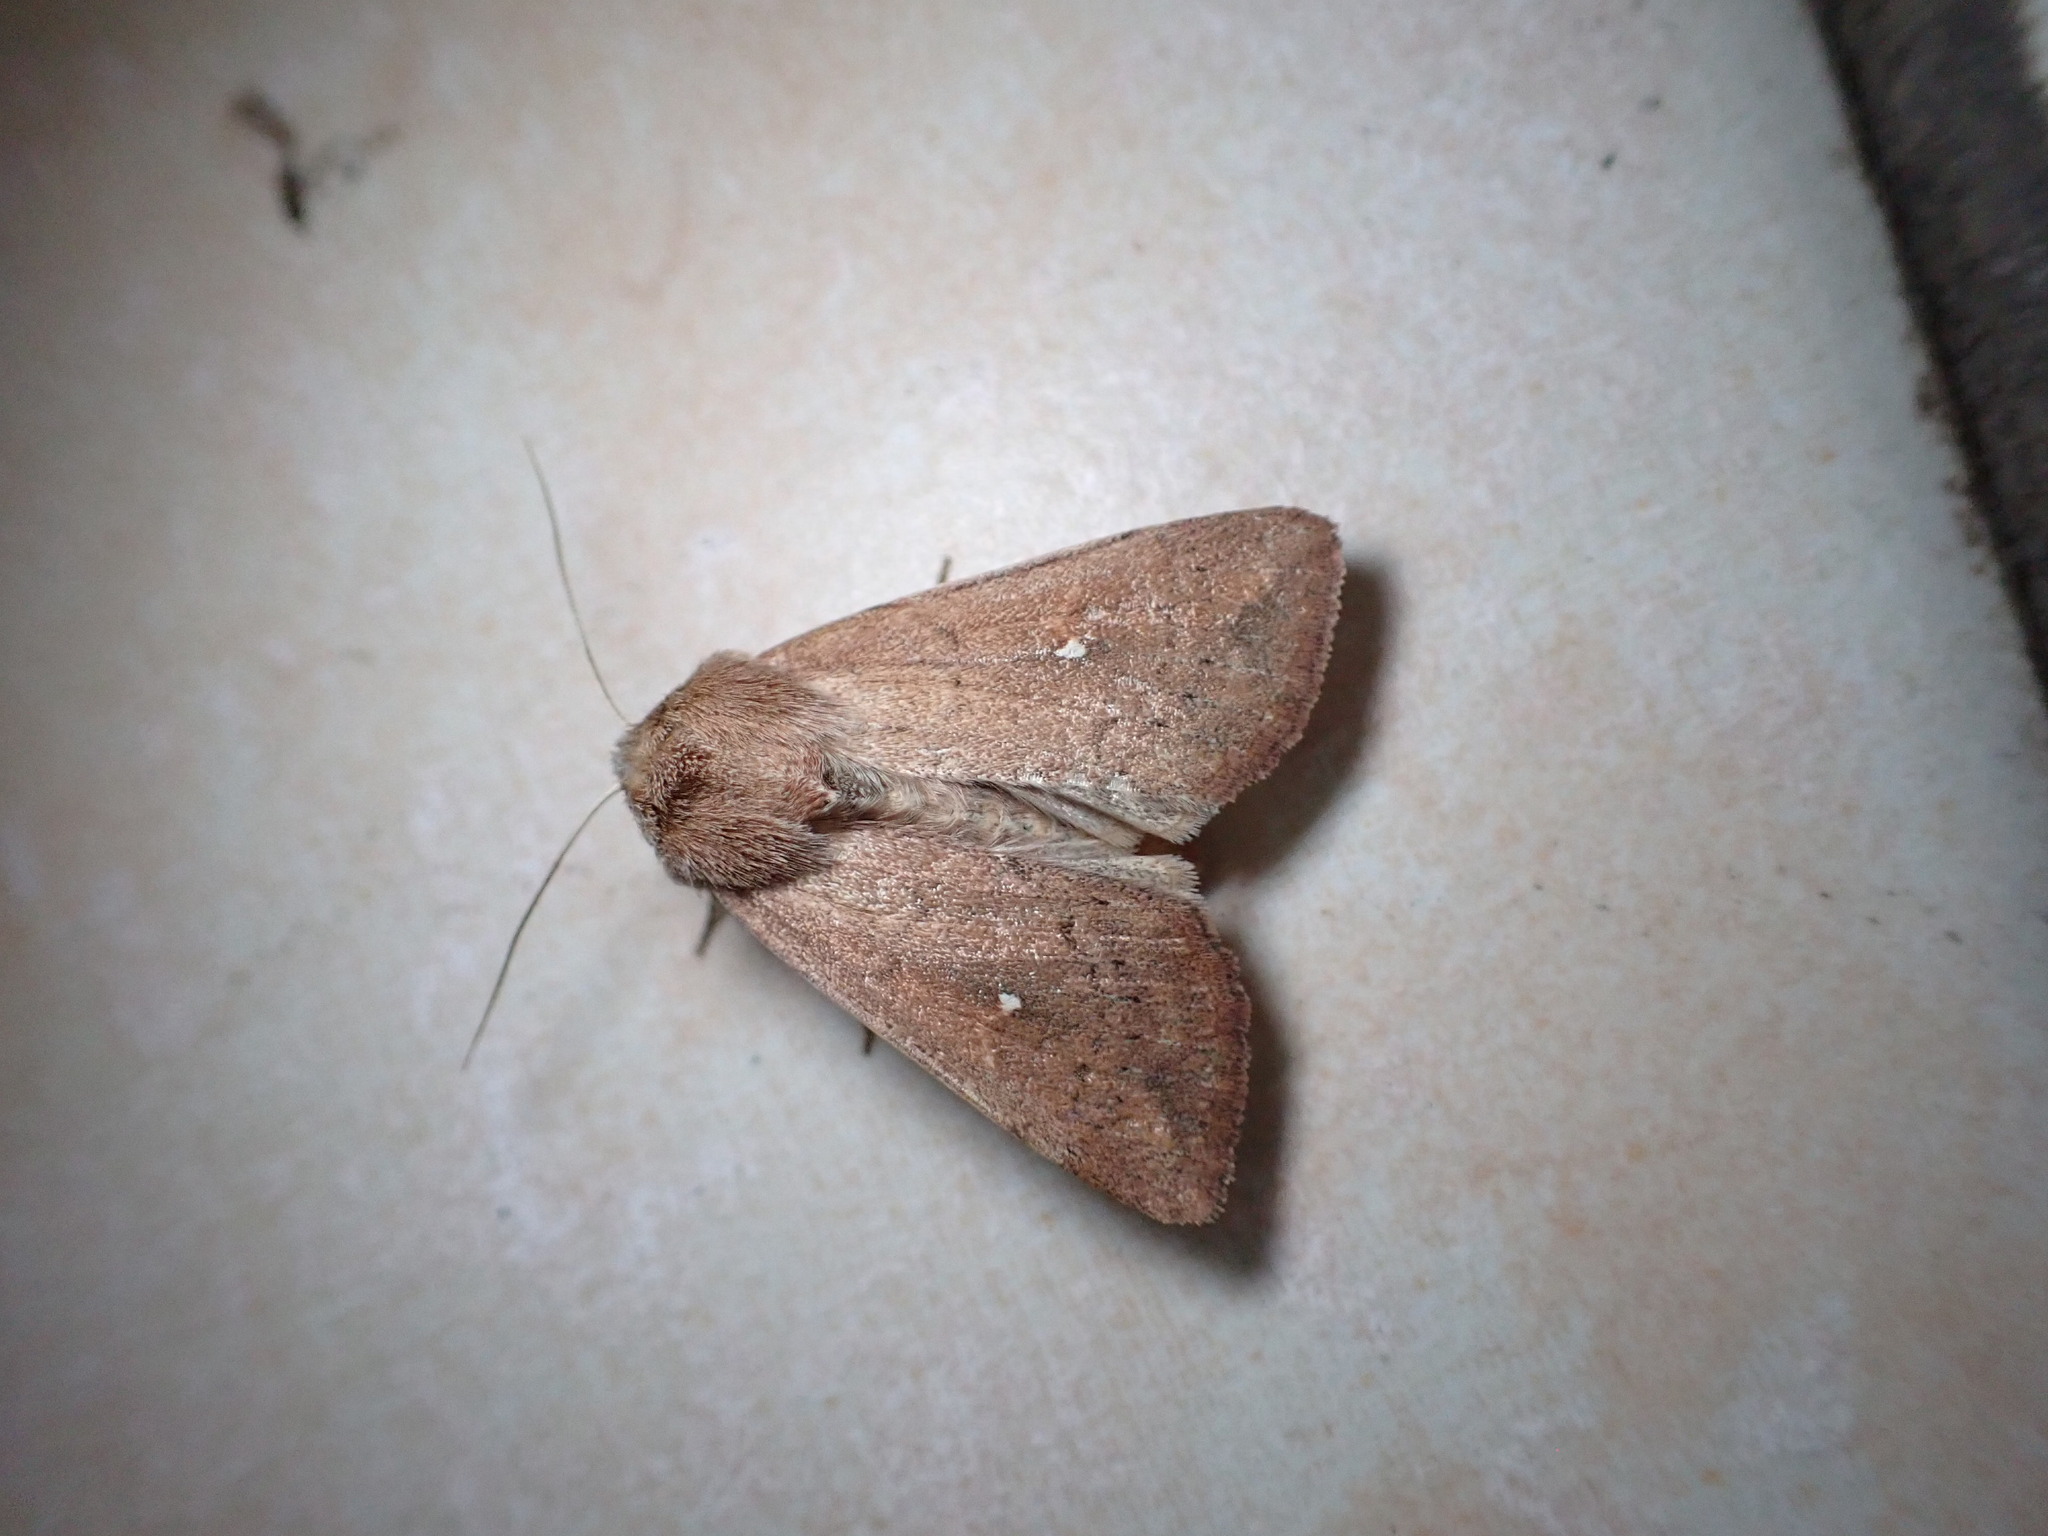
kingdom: Animalia
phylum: Arthropoda
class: Insecta
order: Lepidoptera
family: Noctuidae
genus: Mythimna
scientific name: Mythimna albipuncta
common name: White-point
